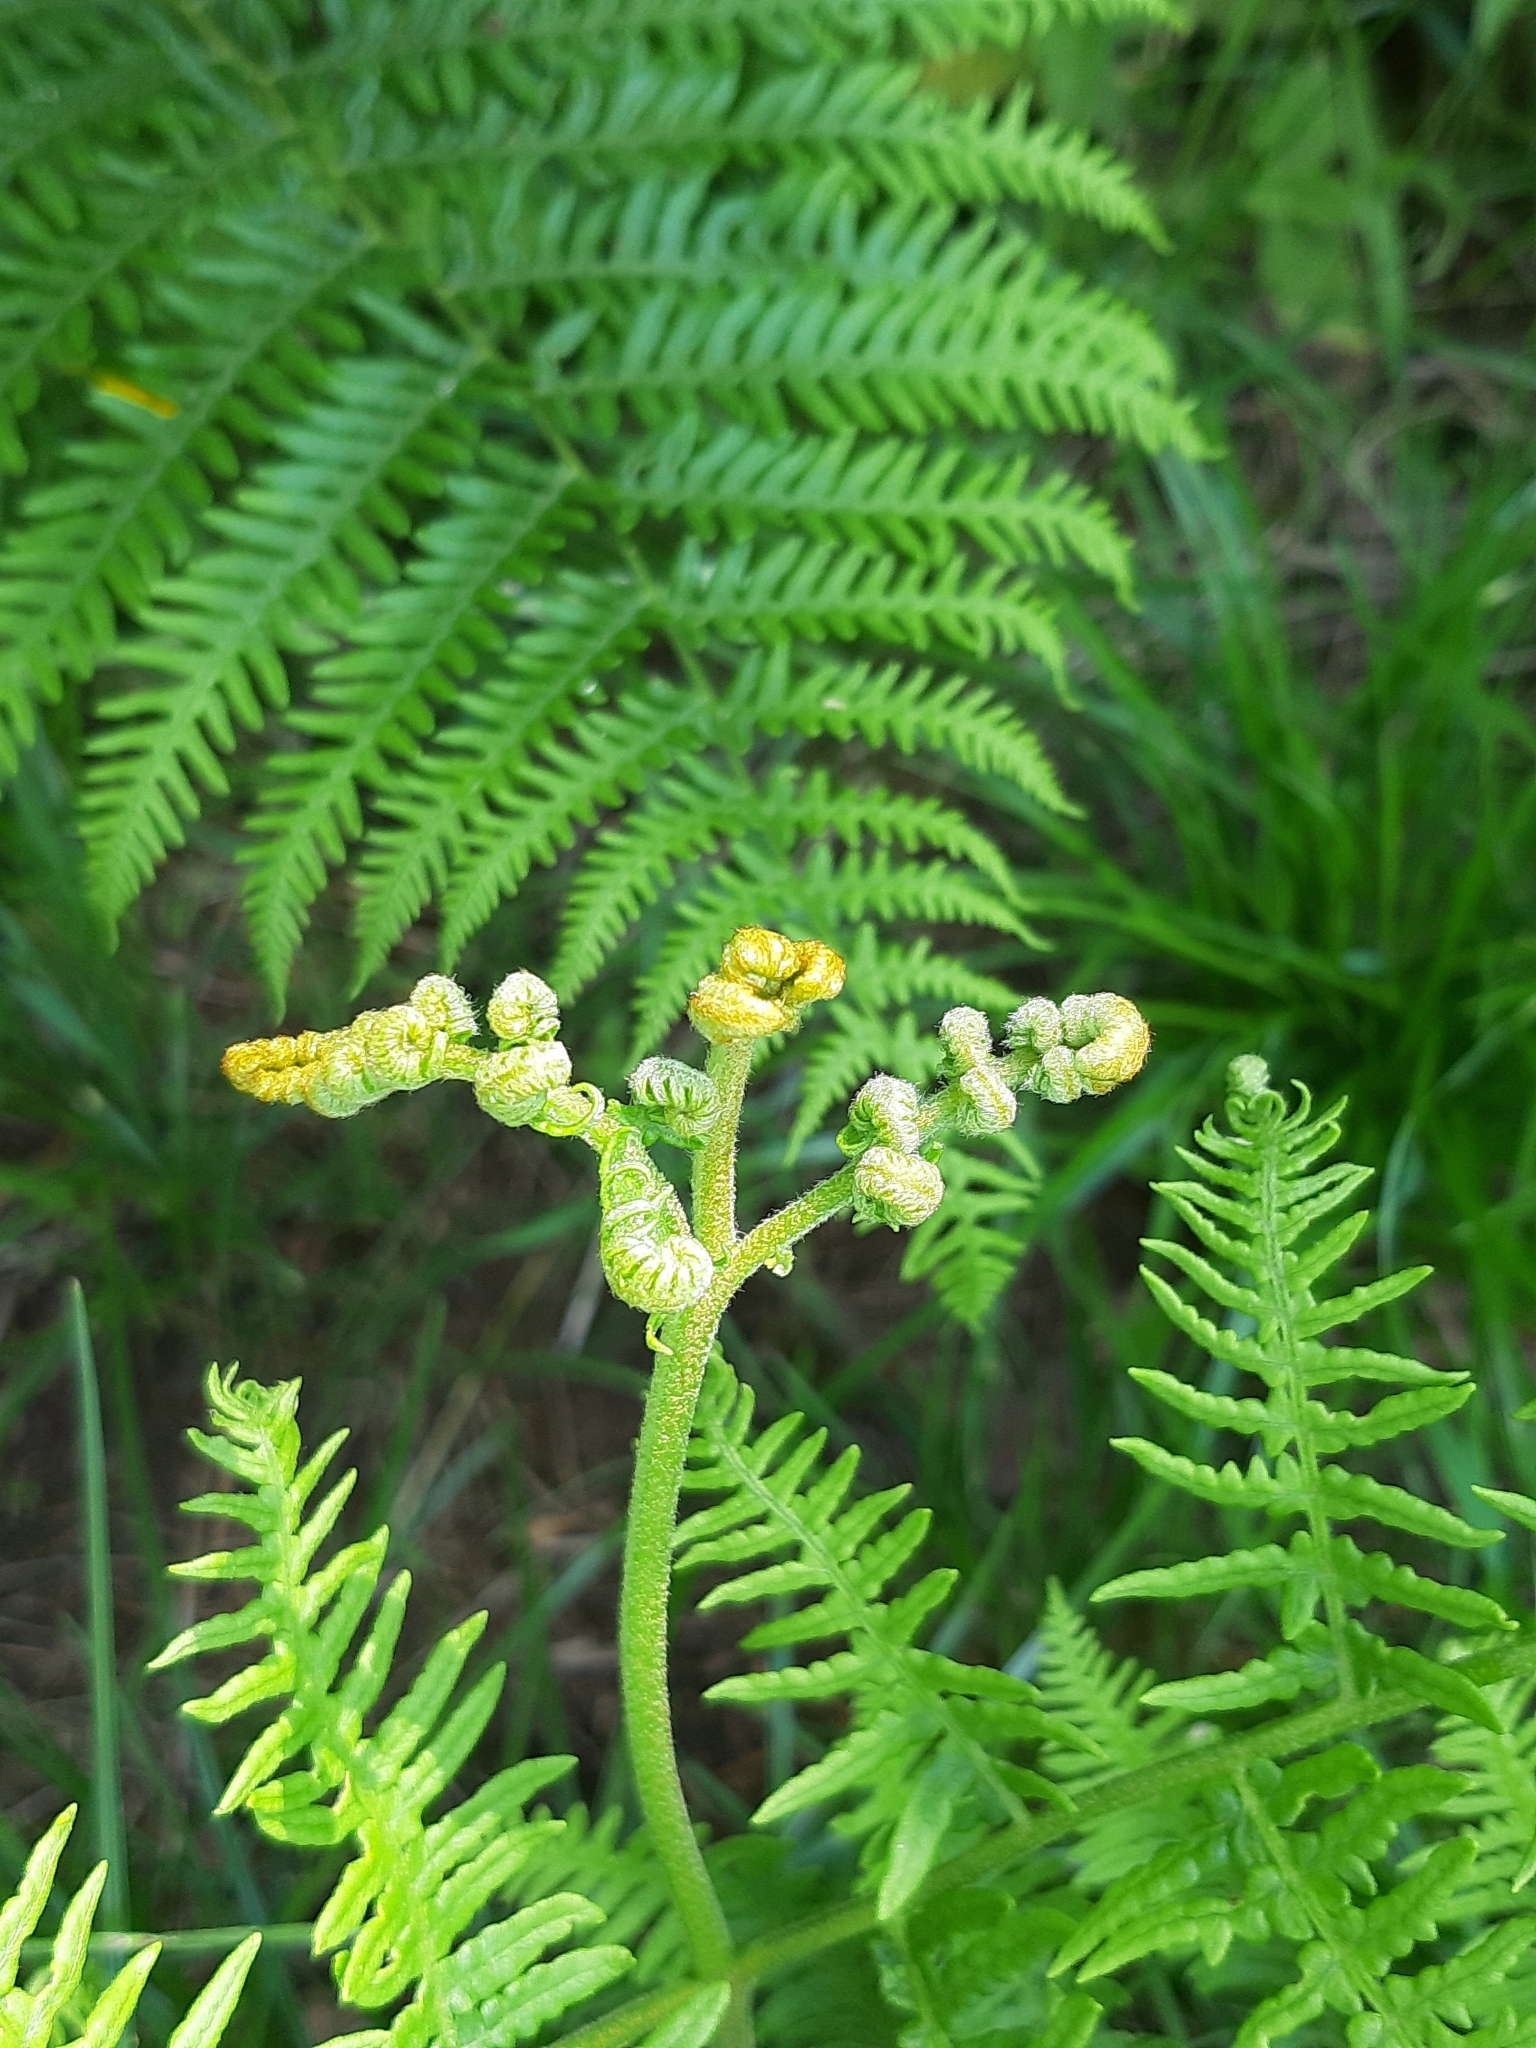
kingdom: Plantae
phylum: Tracheophyta
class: Polypodiopsida
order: Polypodiales
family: Dennstaedtiaceae
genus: Pteridium
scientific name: Pteridium aquilinum
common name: Bracken
